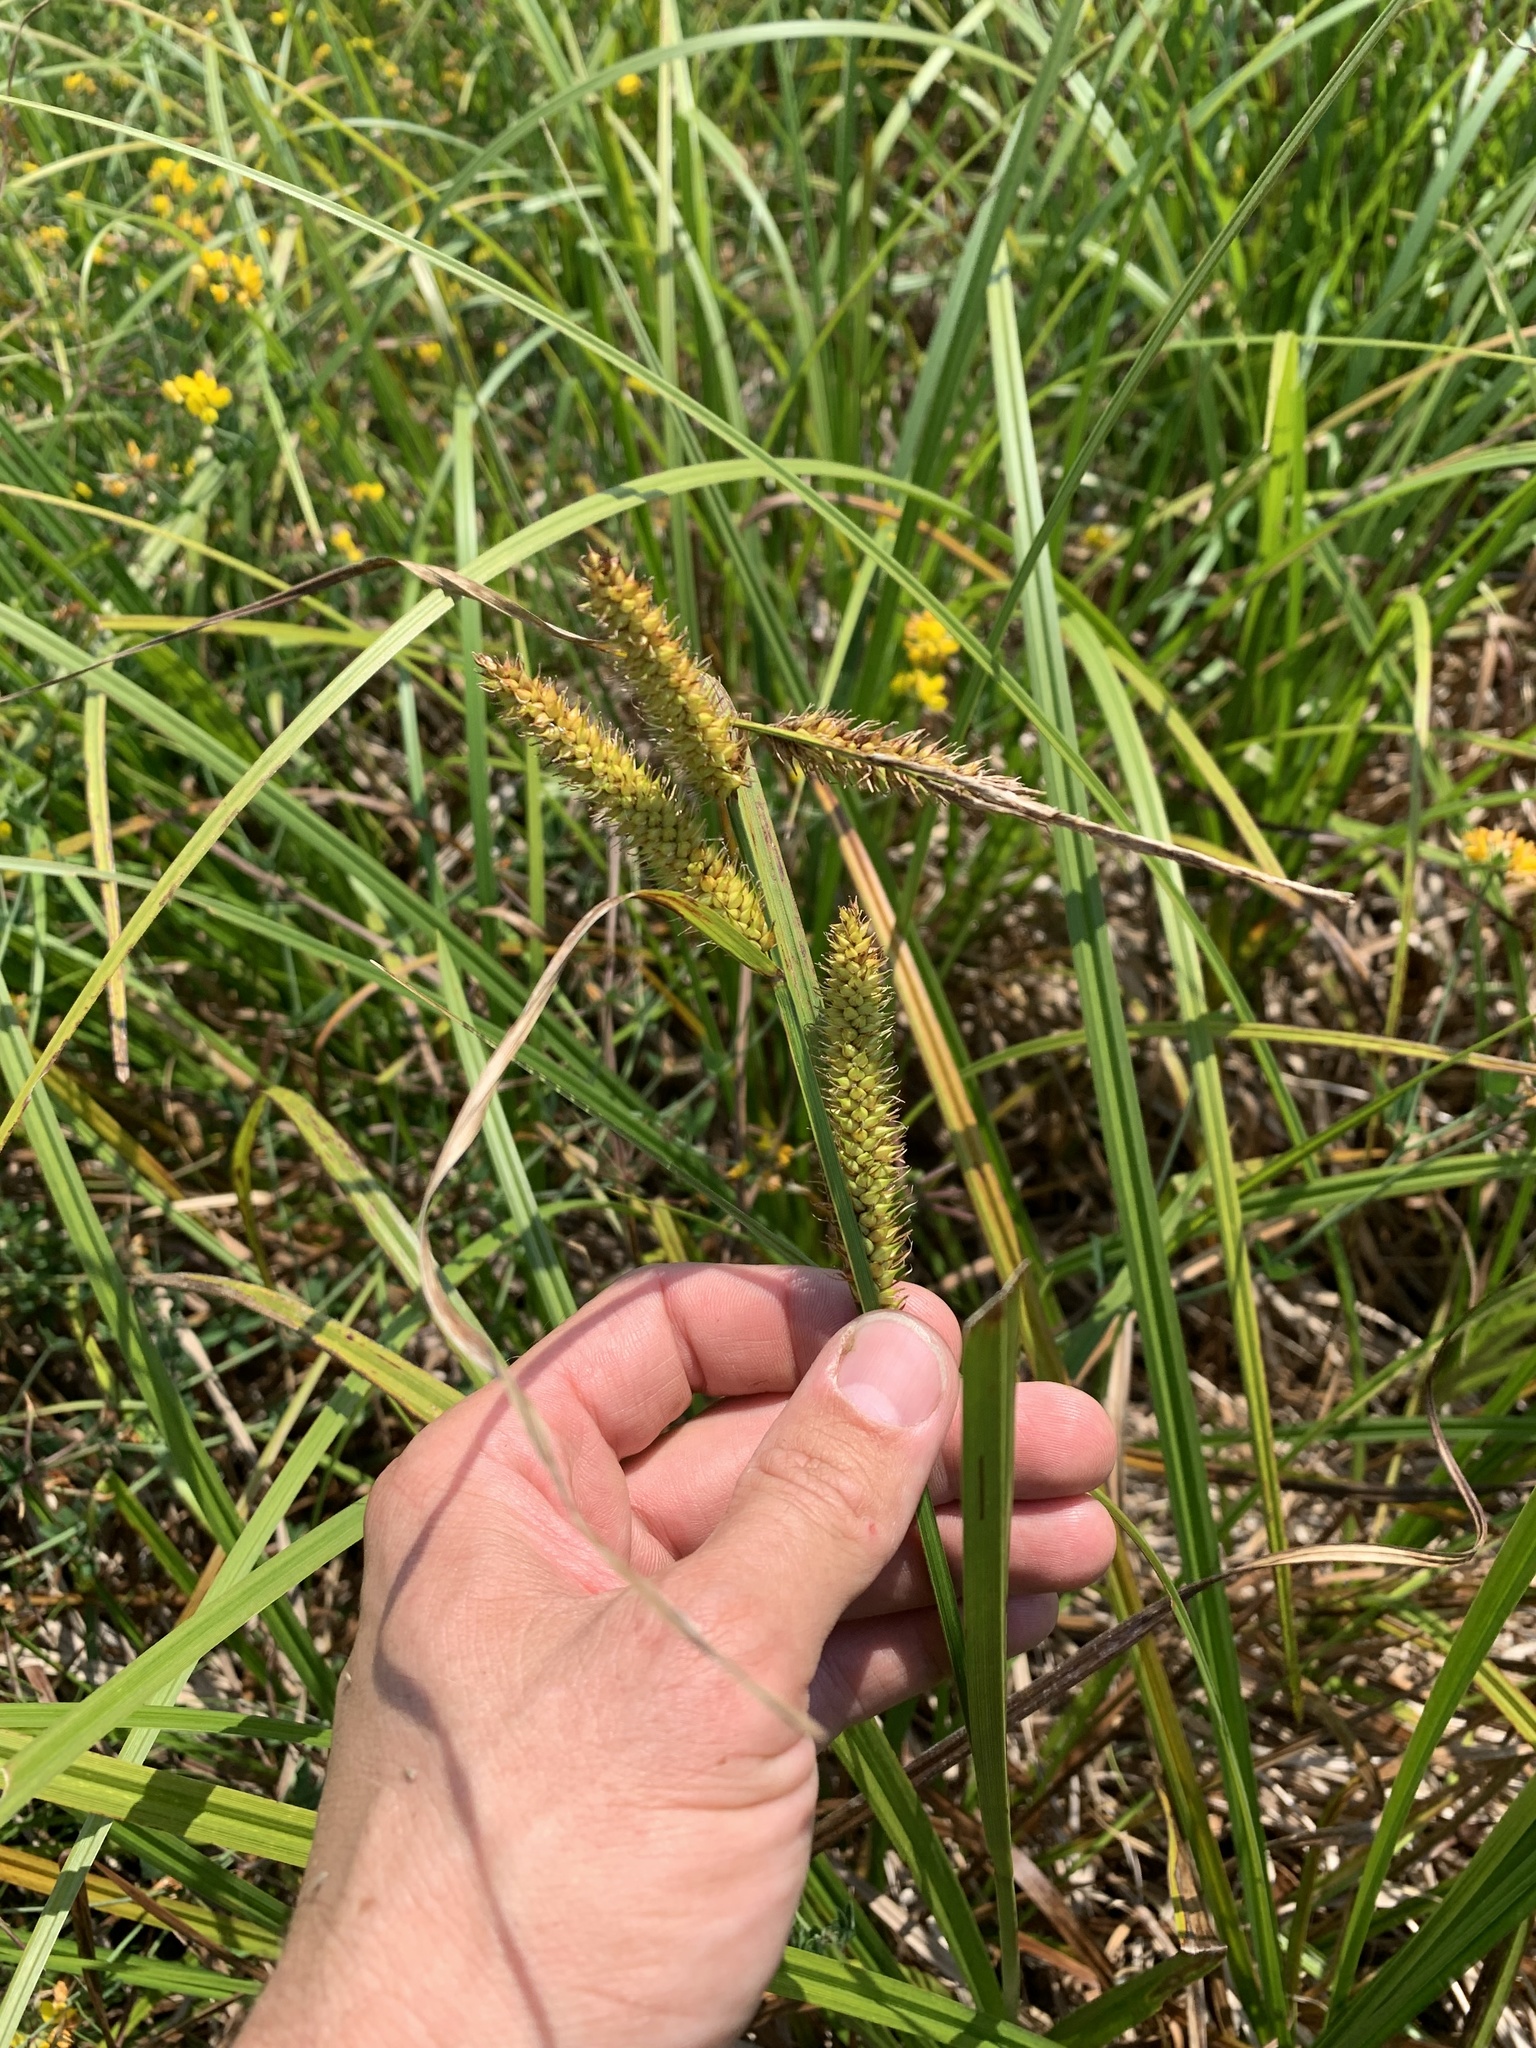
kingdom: Plantae
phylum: Tracheophyta
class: Liliopsida
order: Poales
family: Cyperaceae
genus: Carex
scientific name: Carex utriculata
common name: Beaked sedge
